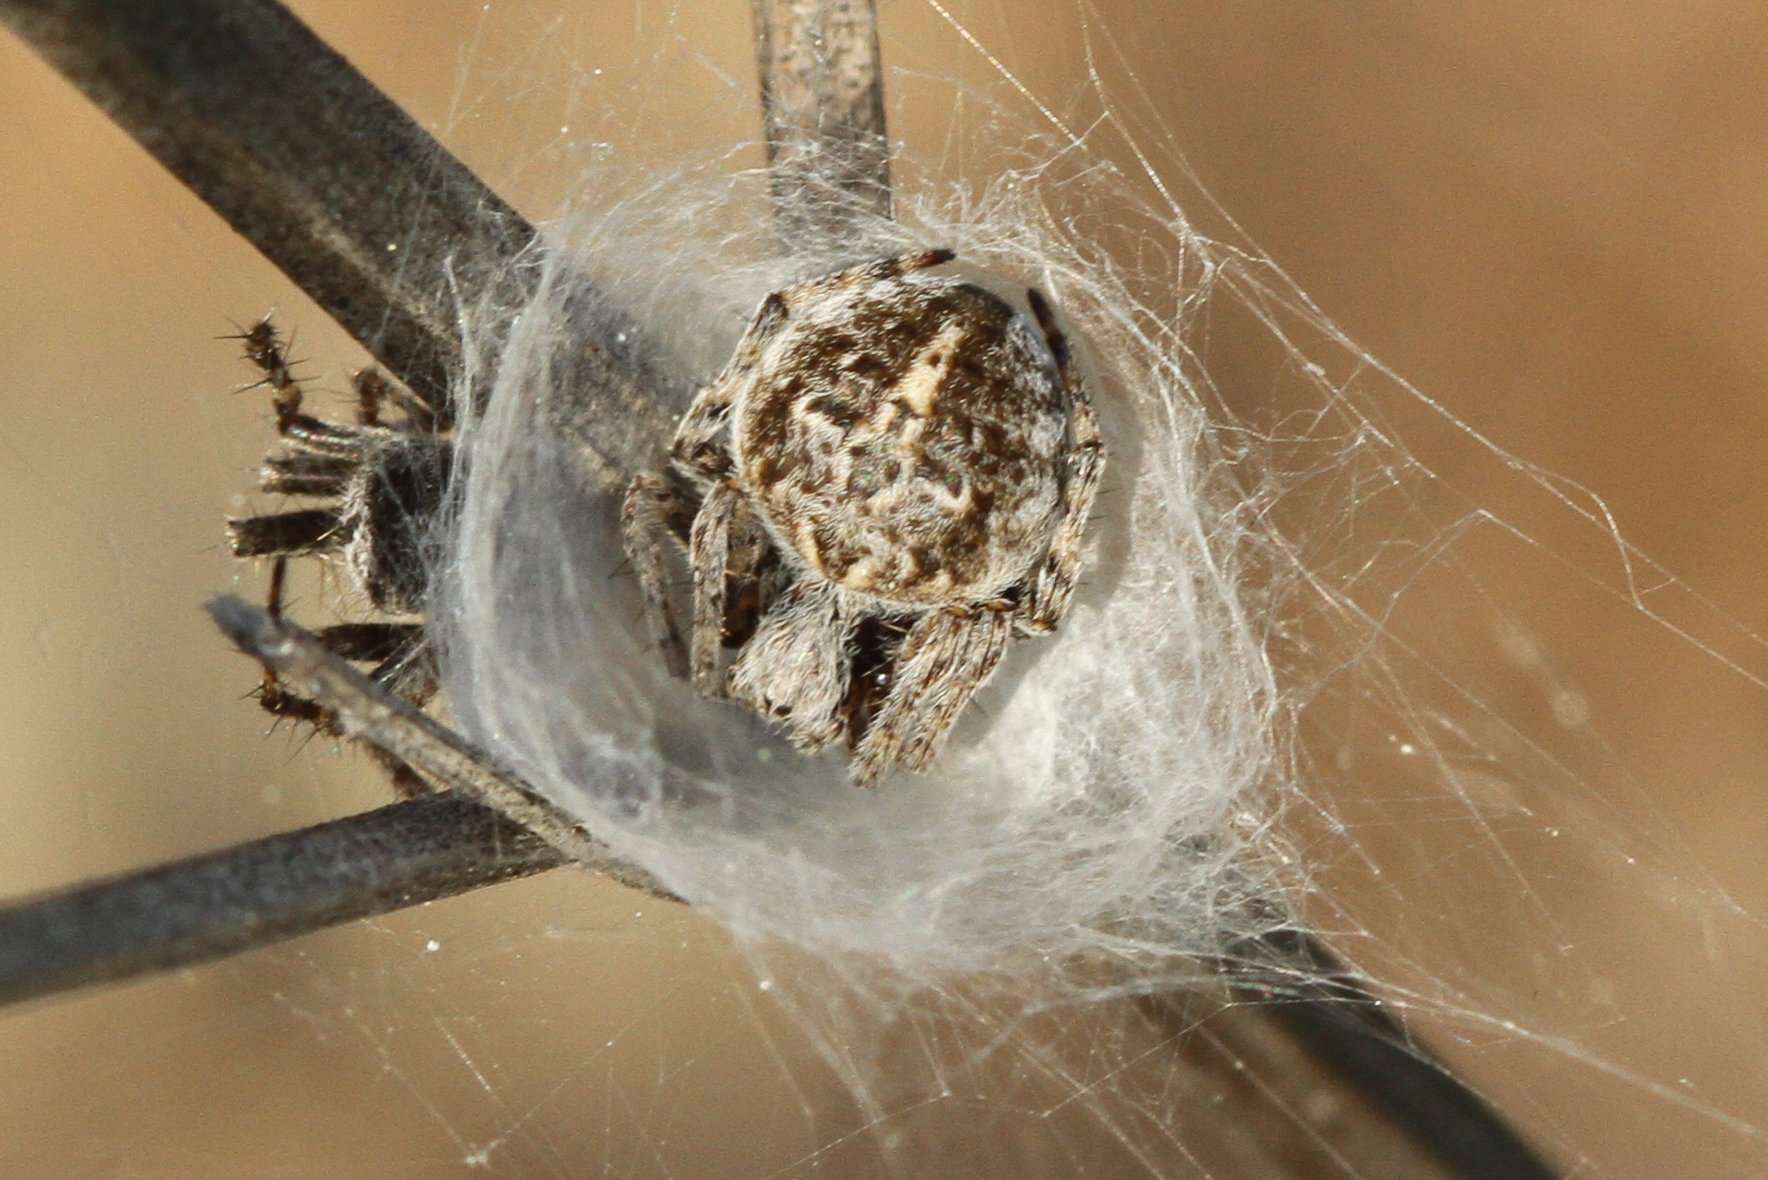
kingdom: Animalia
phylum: Arthropoda
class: Arachnida
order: Araneae
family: Araneidae
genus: Agalenatea
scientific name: Agalenatea redii
